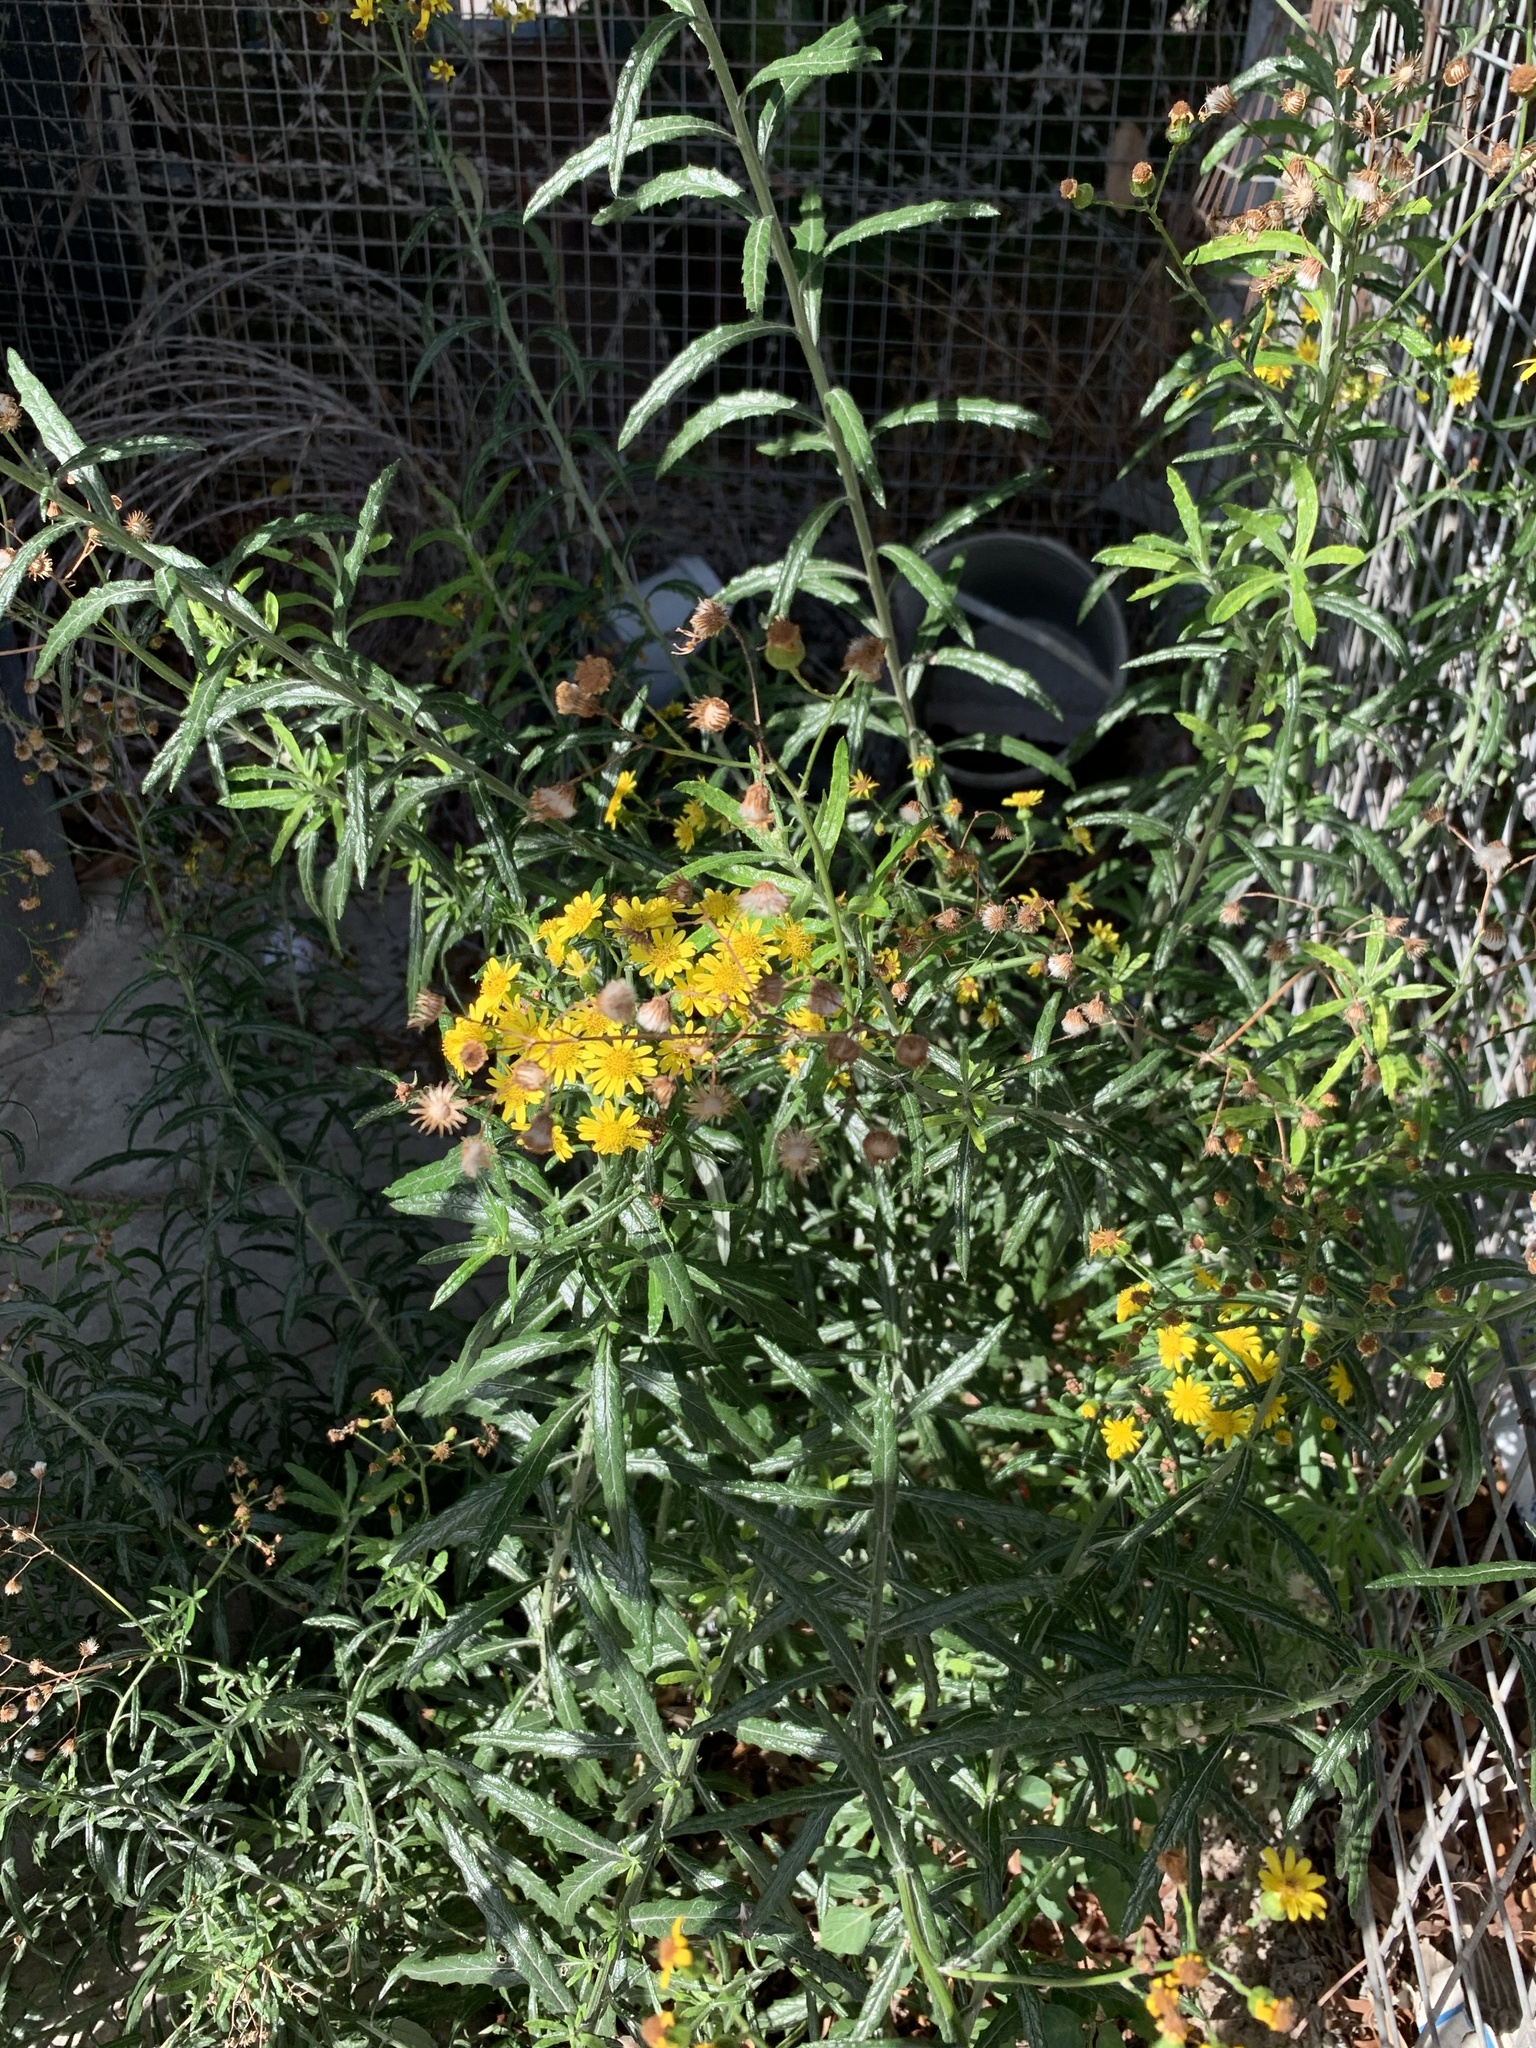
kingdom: Plantae
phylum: Tracheophyta
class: Magnoliopsida
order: Asterales
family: Asteraceae
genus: Senecio
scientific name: Senecio pterophorus
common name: Shoddy ragwort
